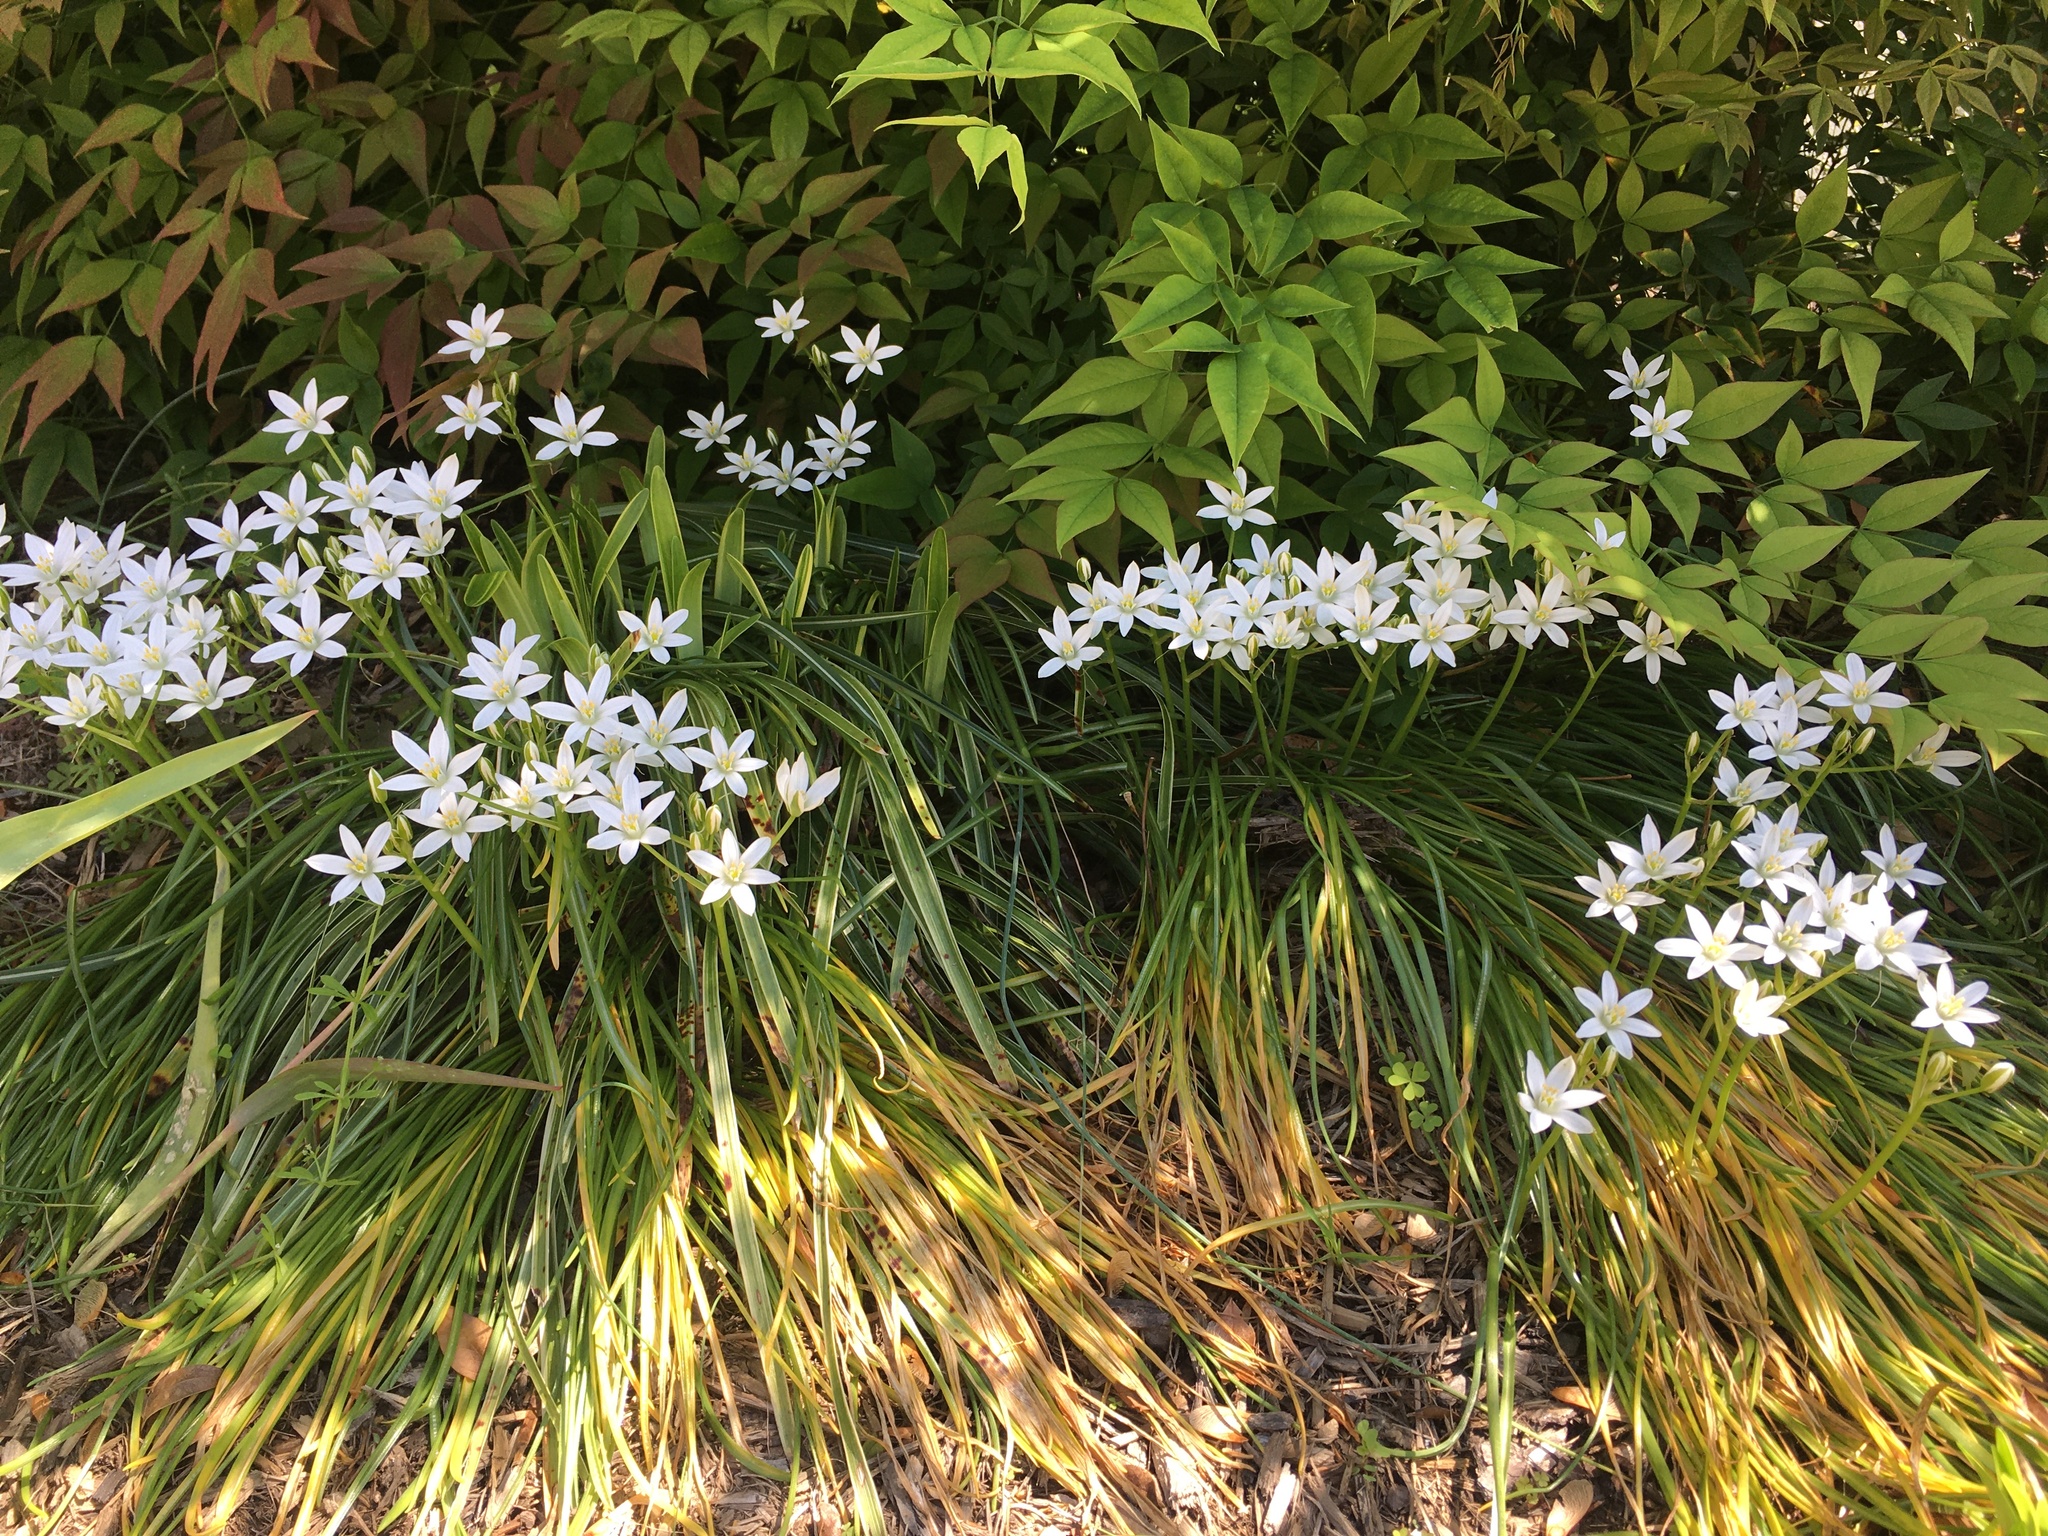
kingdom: Plantae
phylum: Tracheophyta
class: Liliopsida
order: Asparagales
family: Asparagaceae
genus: Ornithogalum
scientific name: Ornithogalum umbellatum
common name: Garden star-of-bethlehem
